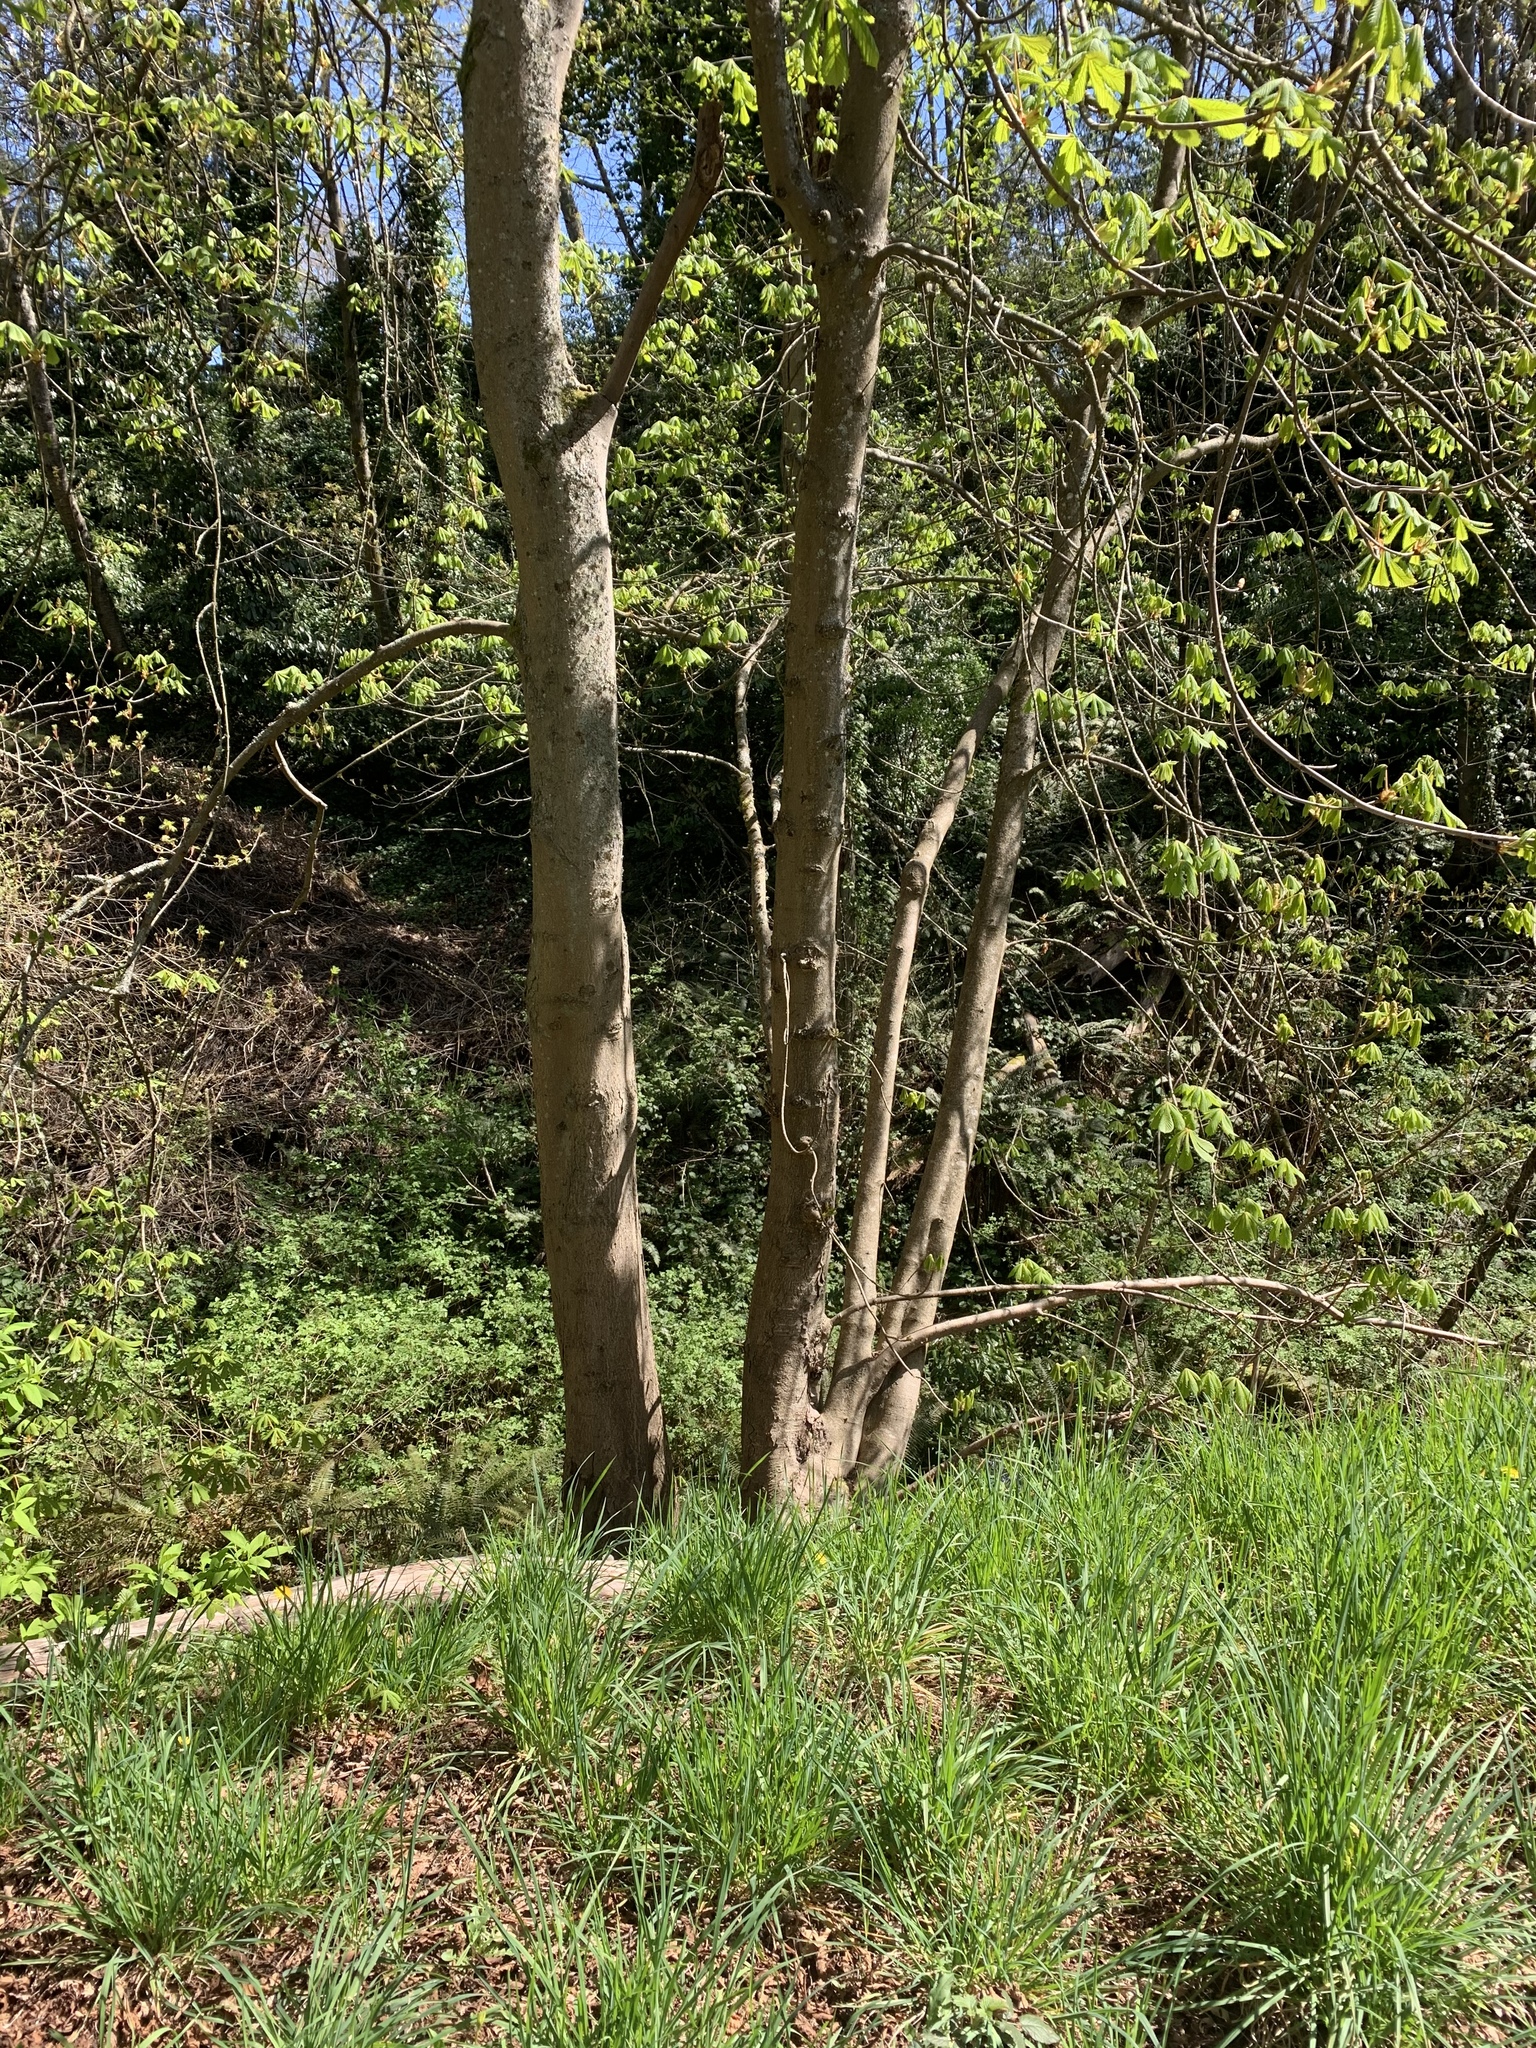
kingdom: Plantae
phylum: Tracheophyta
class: Magnoliopsida
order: Sapindales
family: Sapindaceae
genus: Aesculus
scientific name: Aesculus hippocastanum
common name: Horse-chestnut
